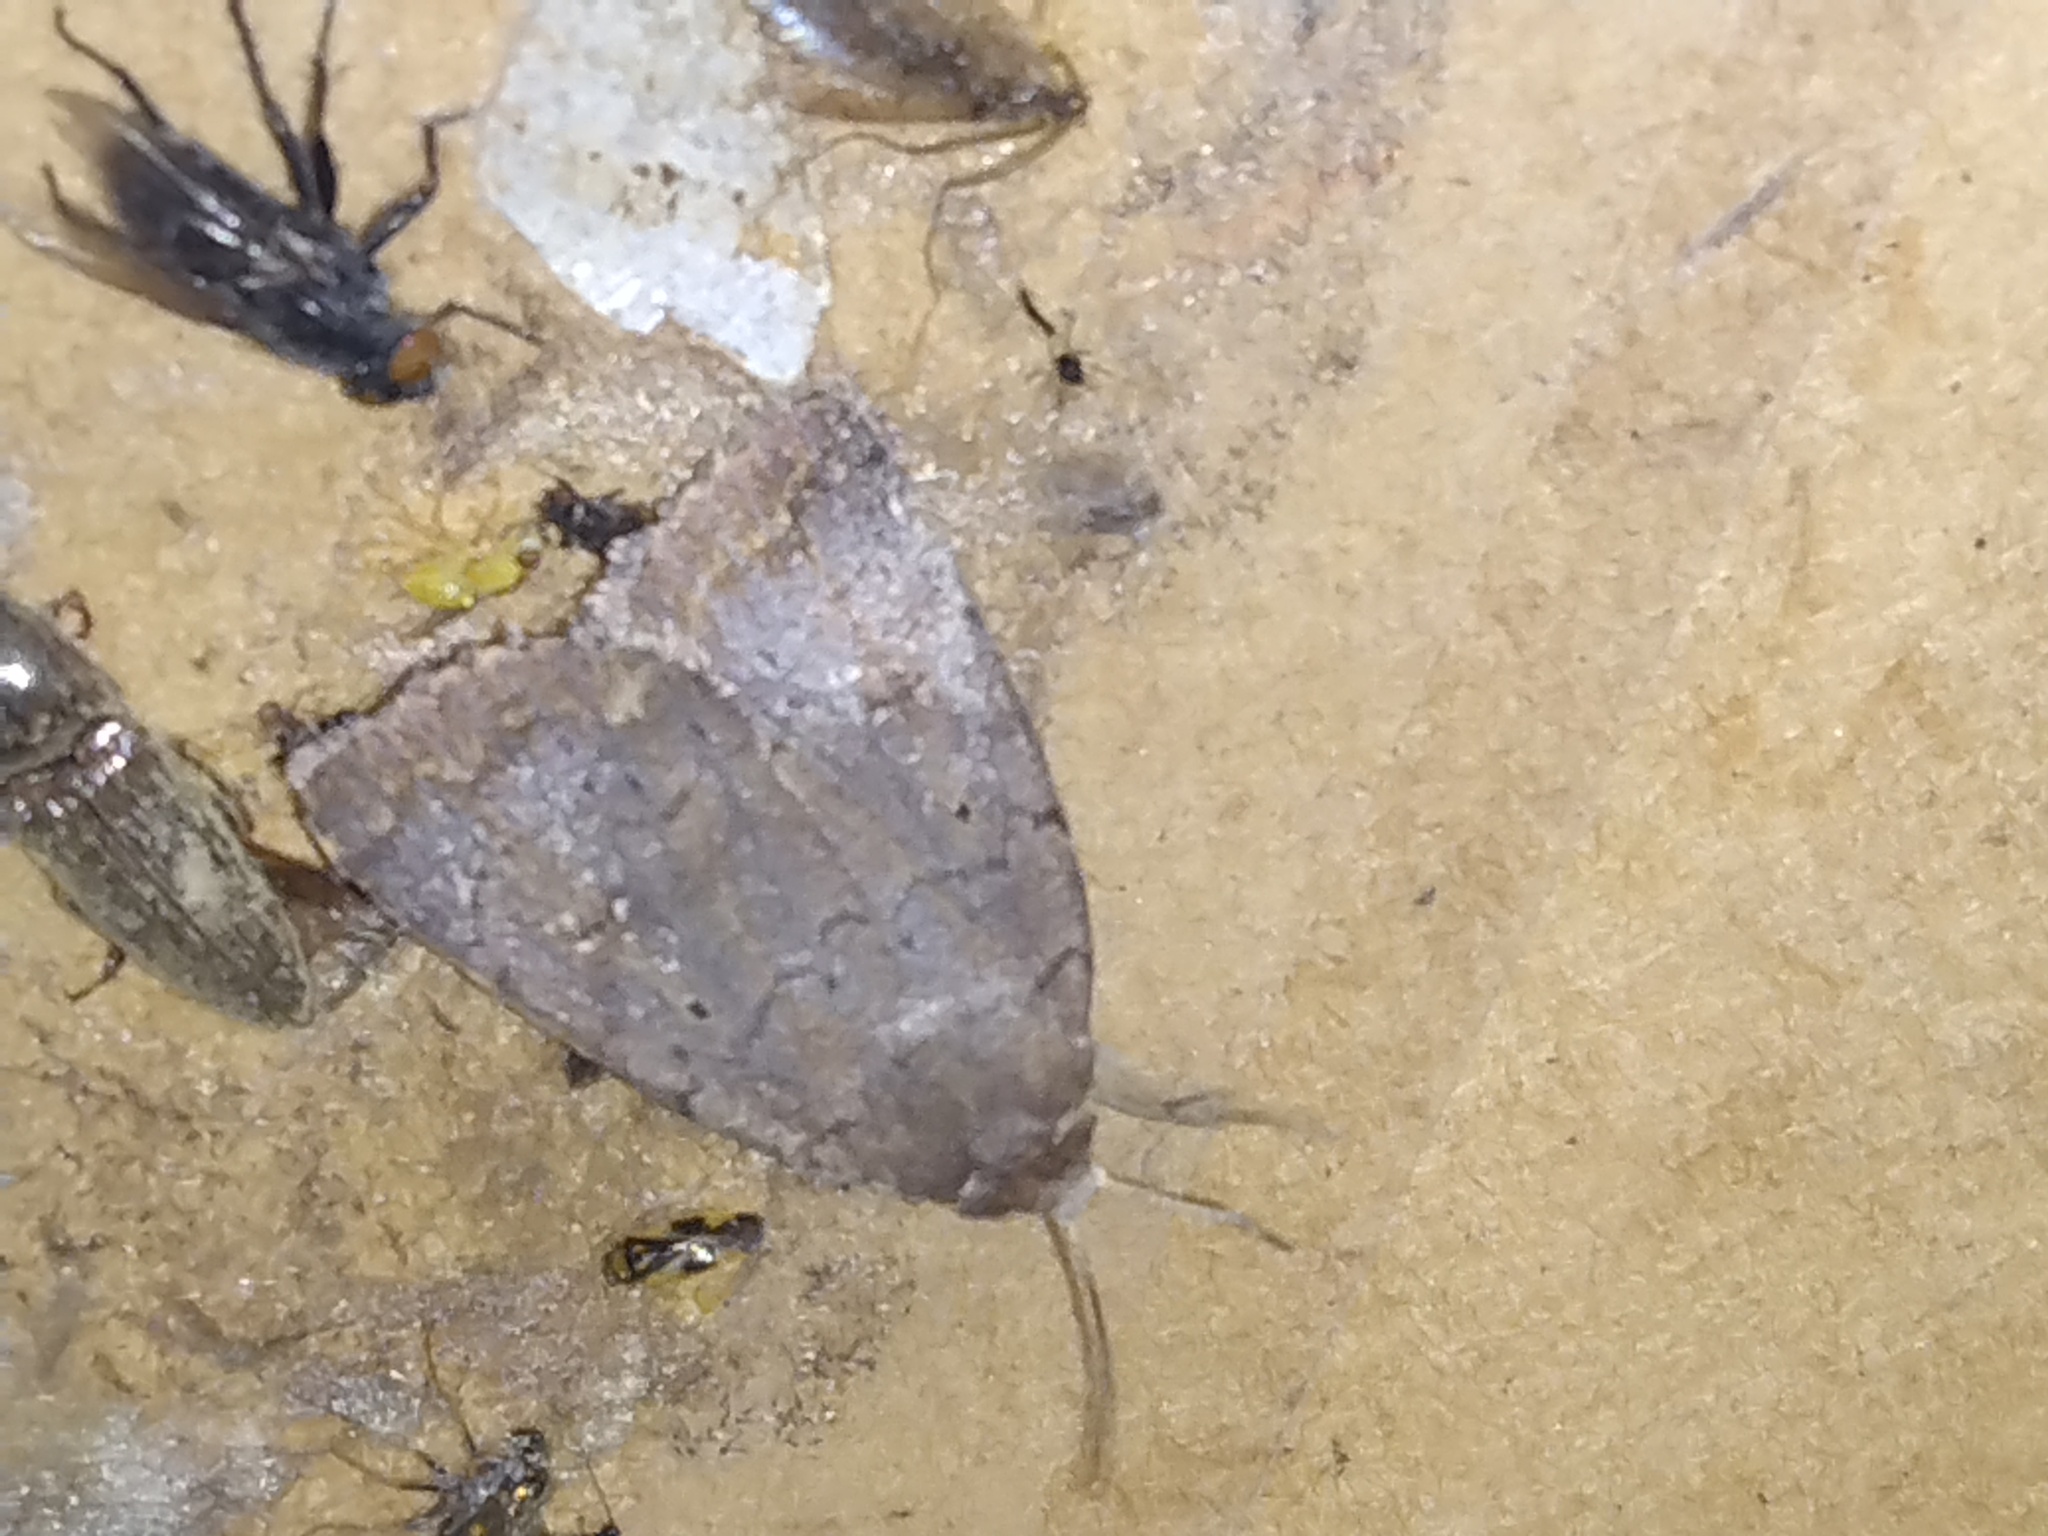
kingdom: Animalia
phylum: Arthropoda
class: Insecta
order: Lepidoptera
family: Noctuidae
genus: Athetis
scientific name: Athetis tarda
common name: Slowpoke moth
